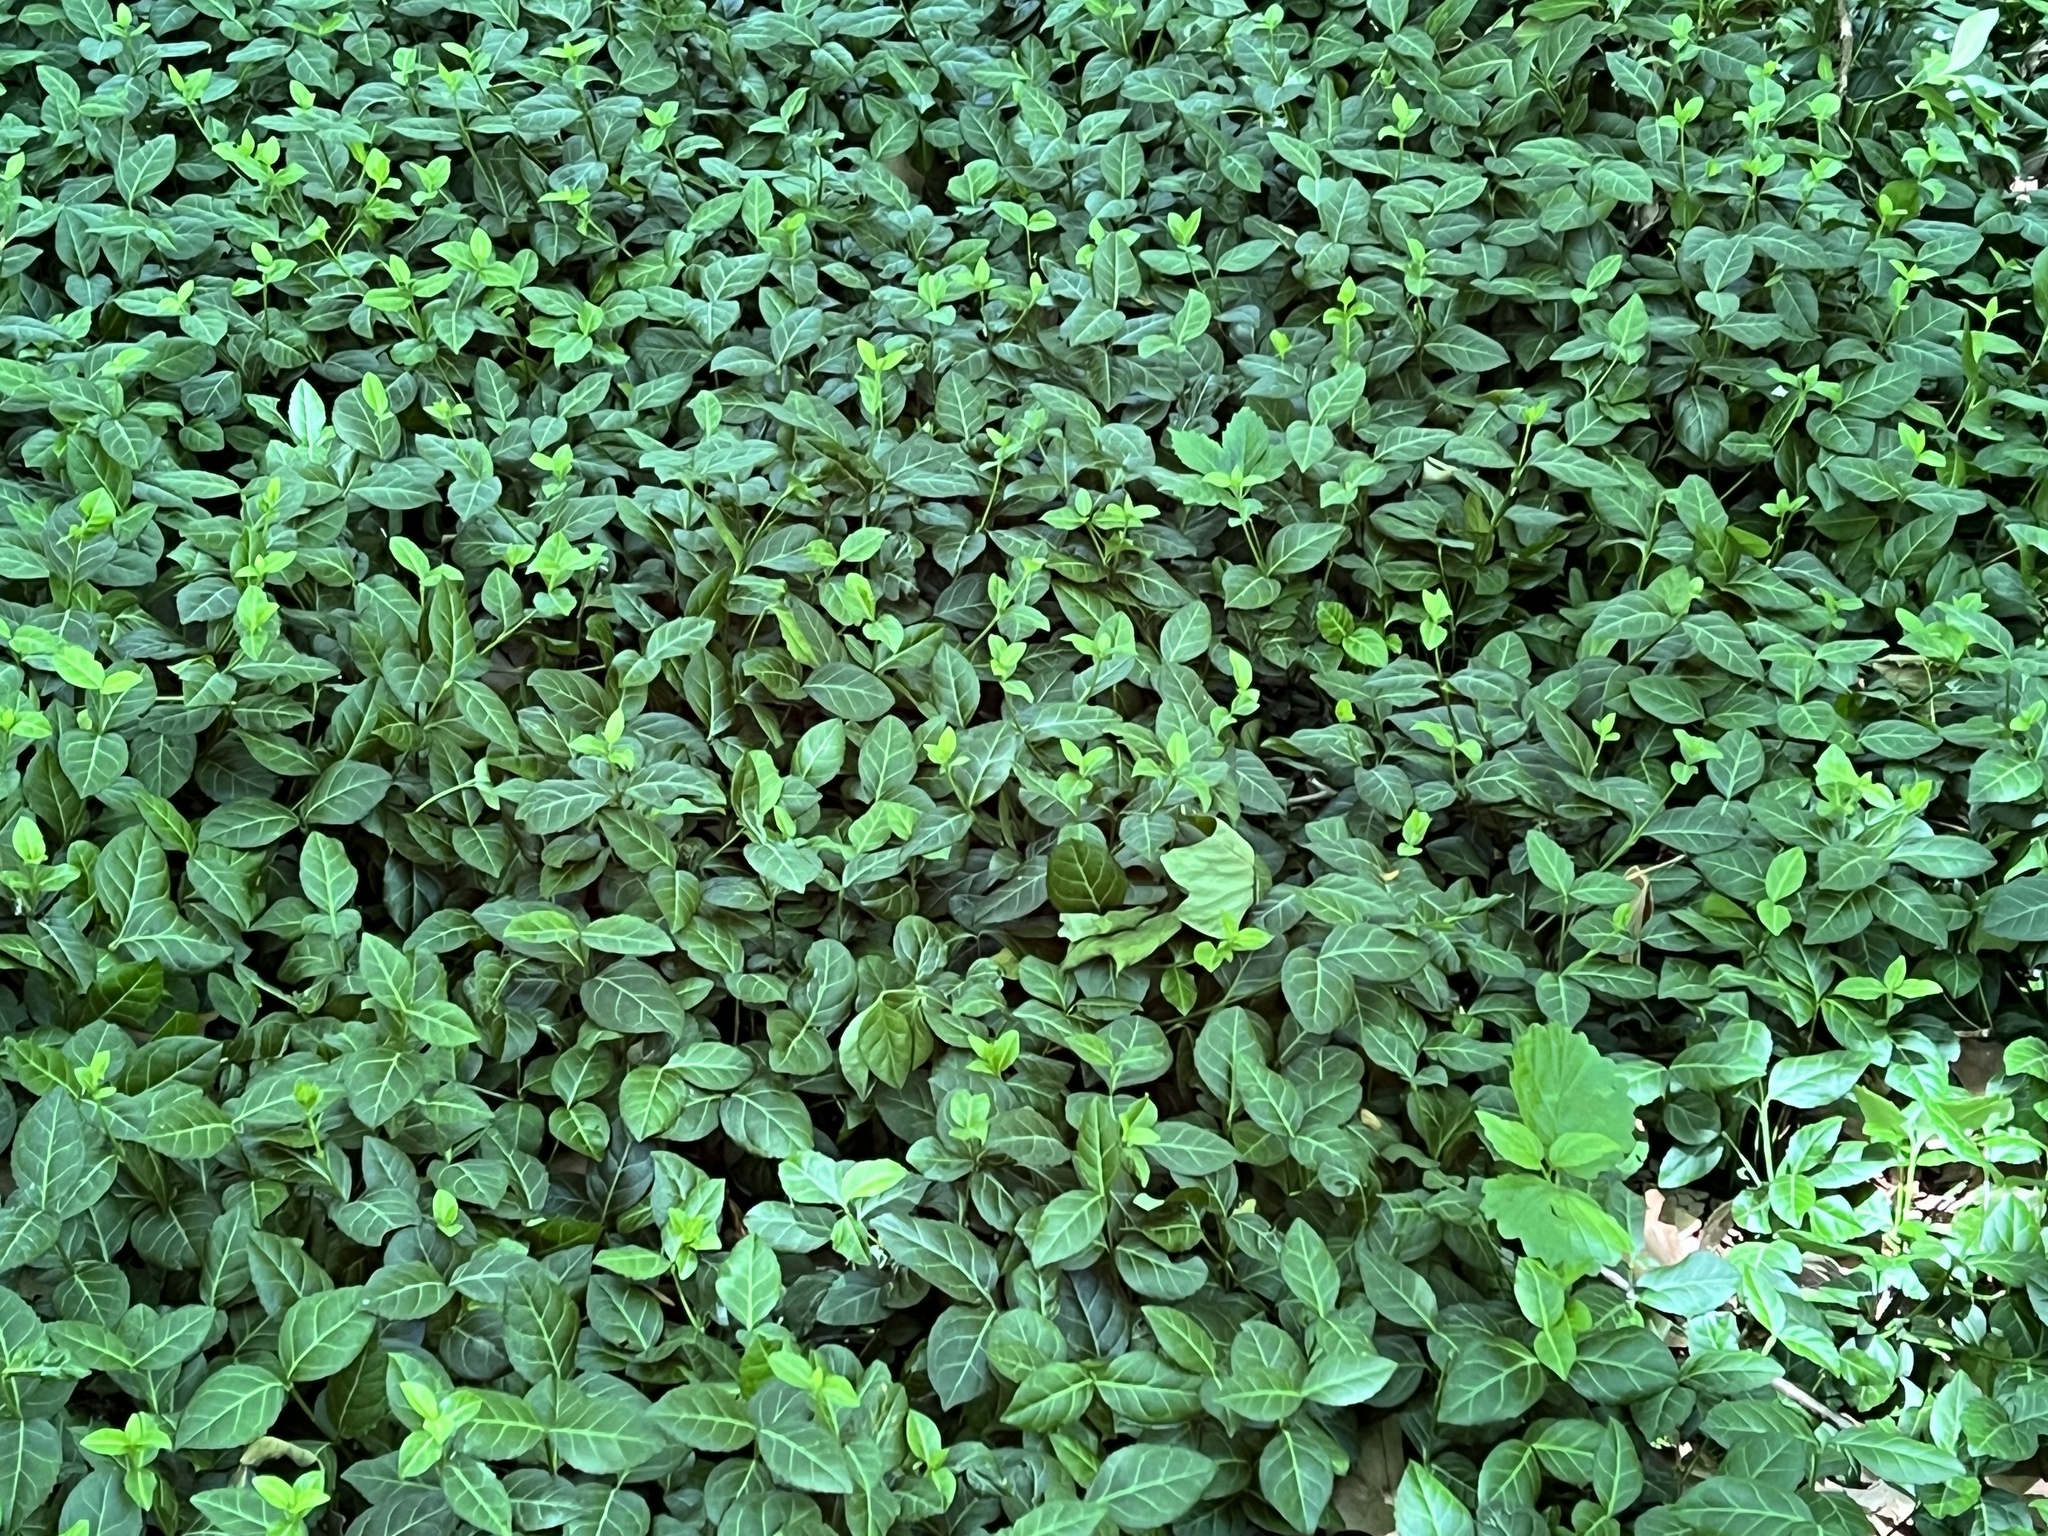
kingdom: Plantae
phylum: Tracheophyta
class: Magnoliopsida
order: Celastrales
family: Celastraceae
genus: Euonymus
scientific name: Euonymus fortunei
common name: Climbing euonymus
